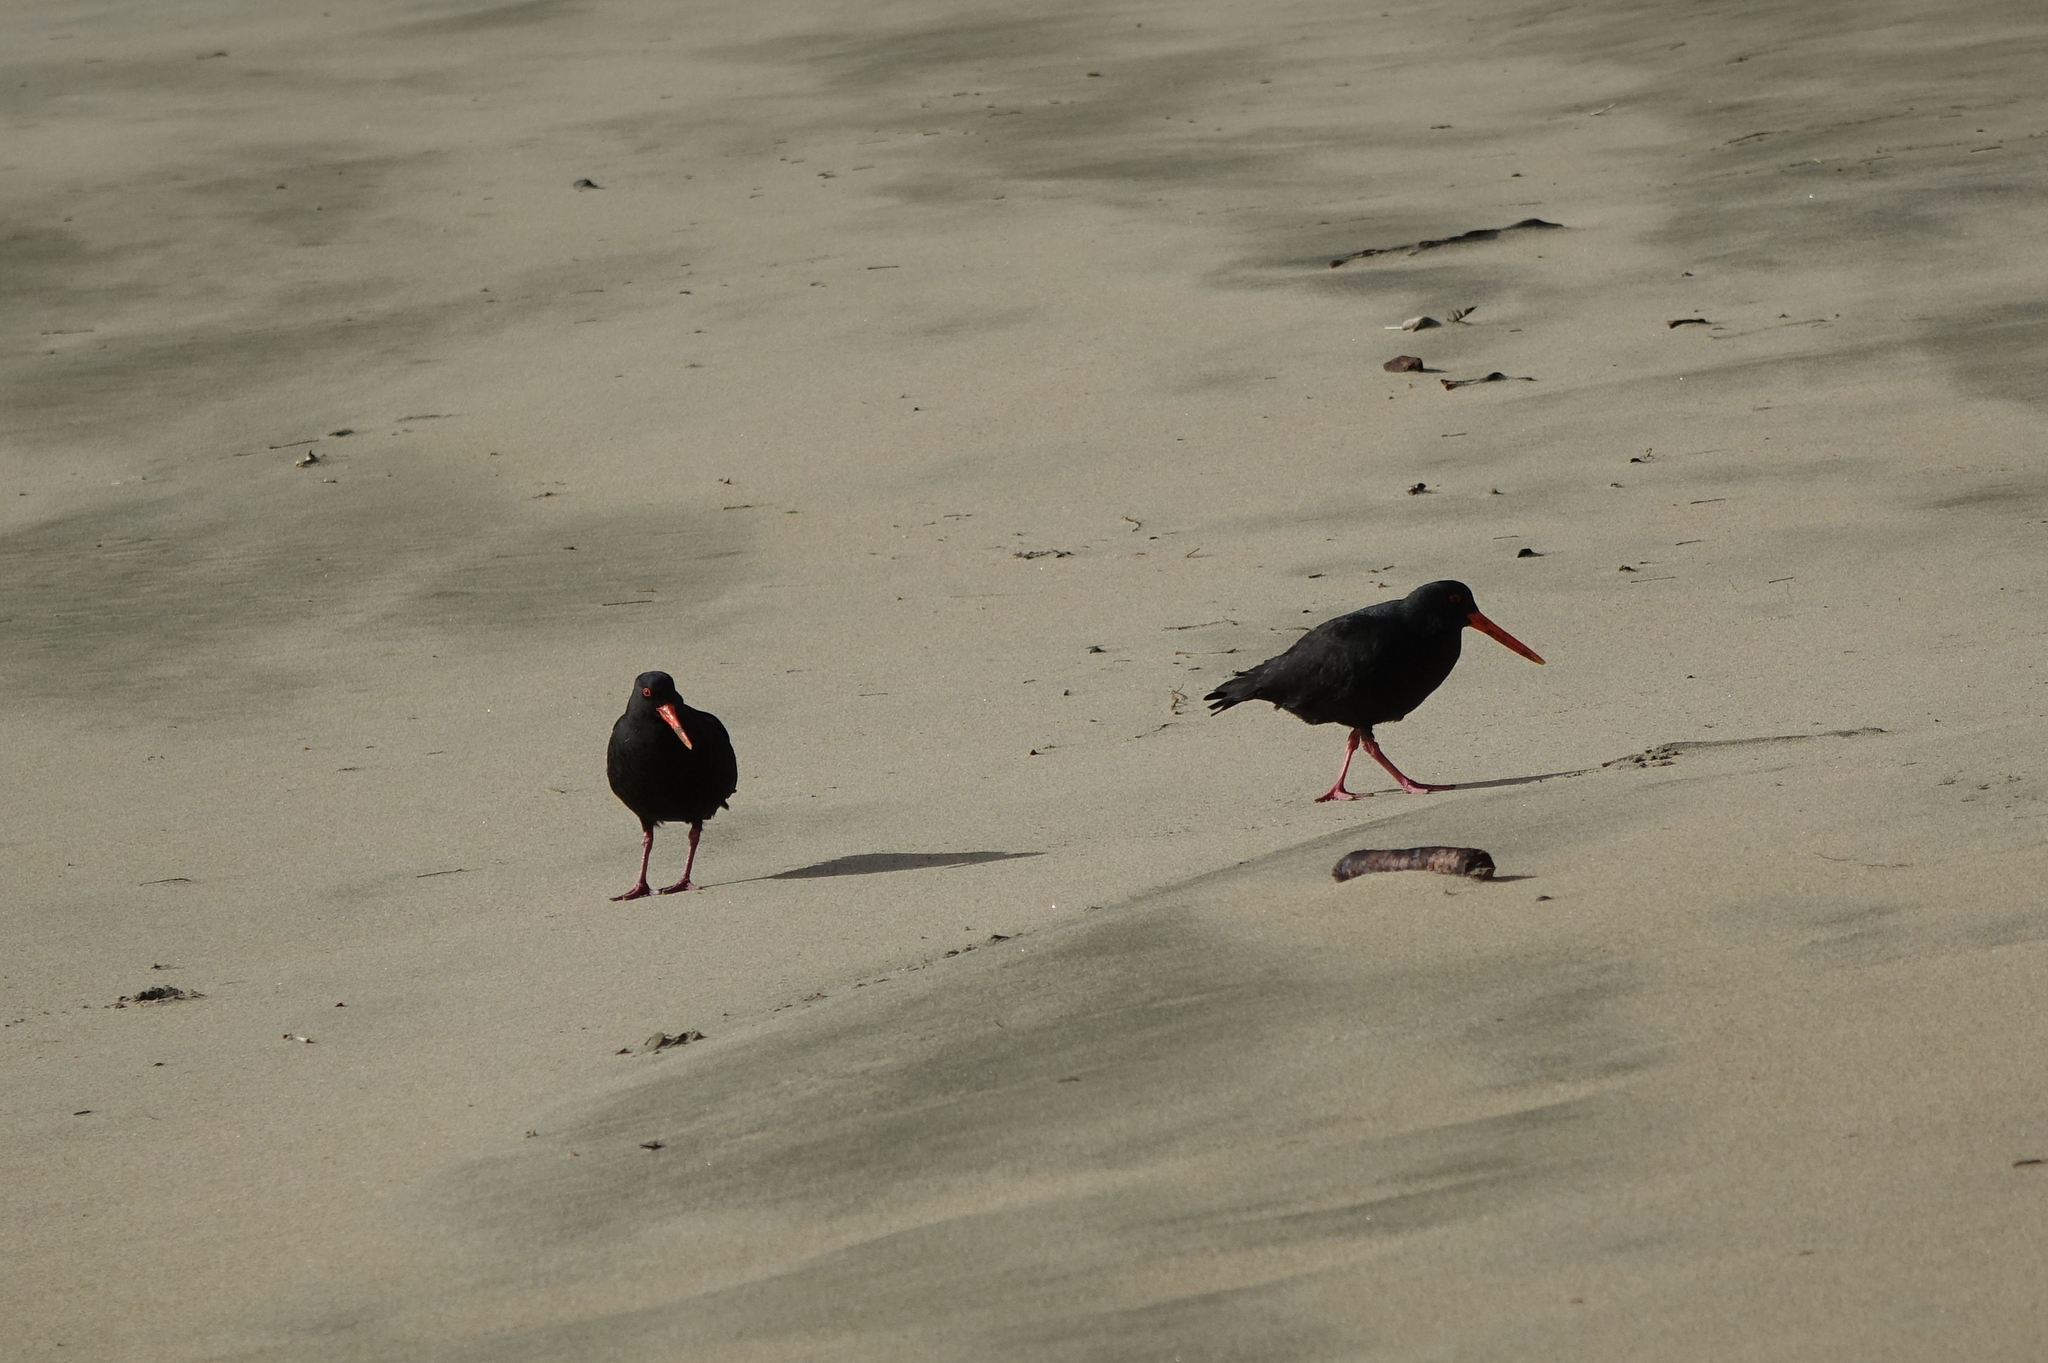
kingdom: Animalia
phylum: Chordata
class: Aves
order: Charadriiformes
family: Haematopodidae
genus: Haematopus
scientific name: Haematopus unicolor
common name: Variable oystercatcher
